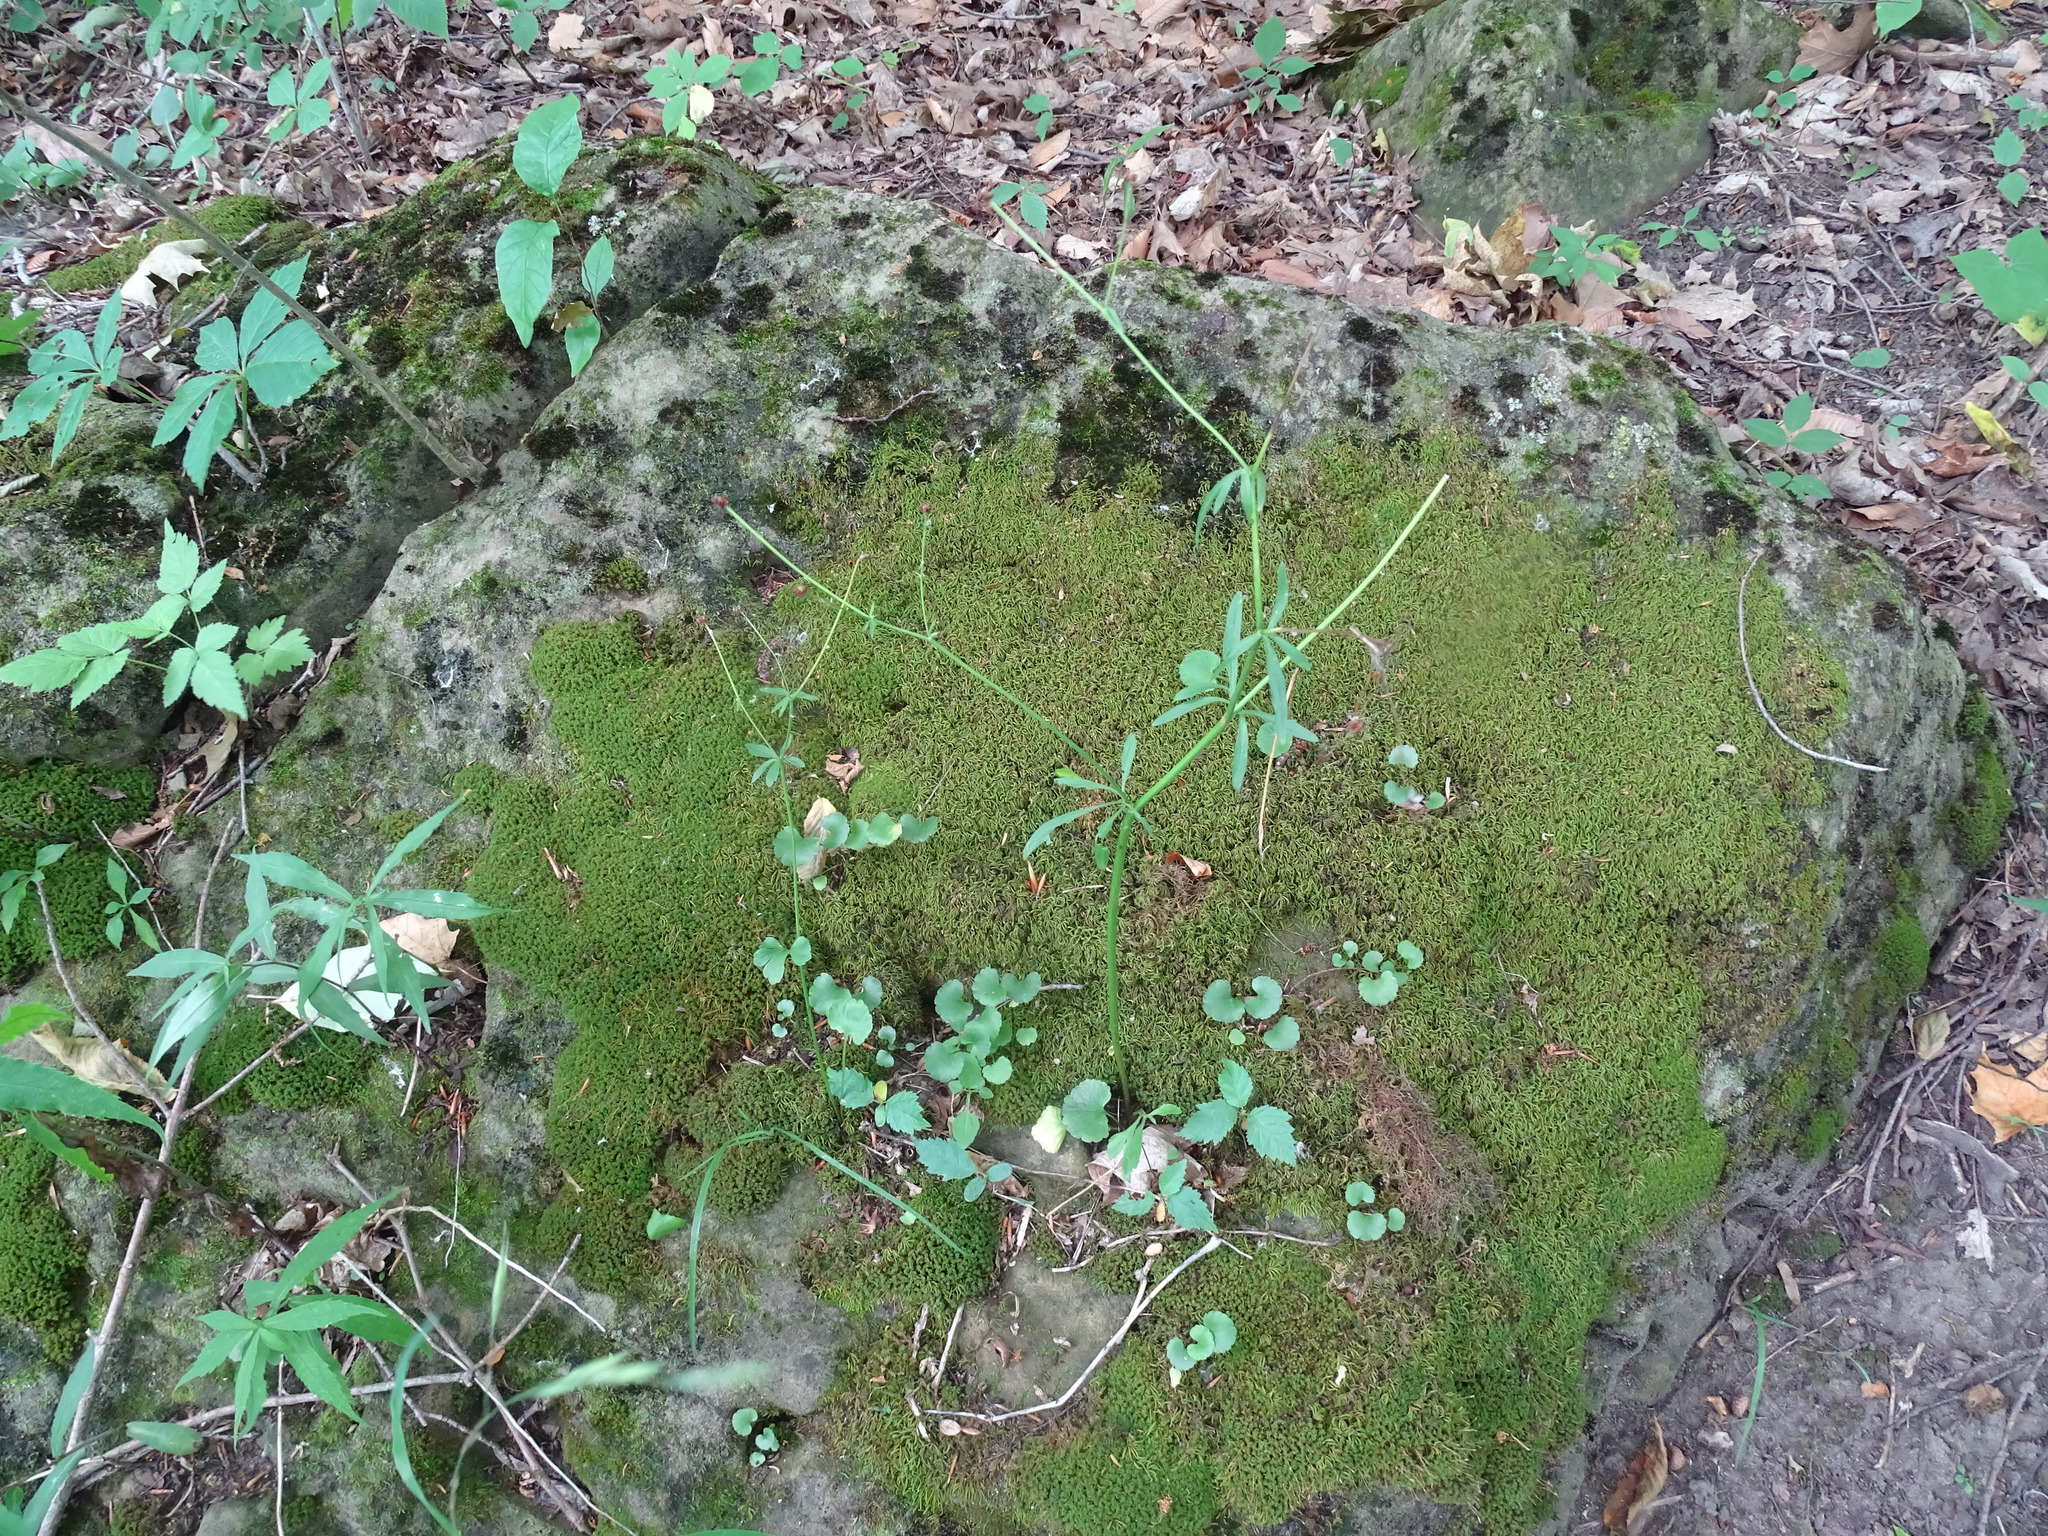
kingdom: Plantae
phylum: Tracheophyta
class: Magnoliopsida
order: Ranunculales
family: Ranunculaceae
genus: Ranunculus
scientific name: Ranunculus abortivus
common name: Early wood buttercup
